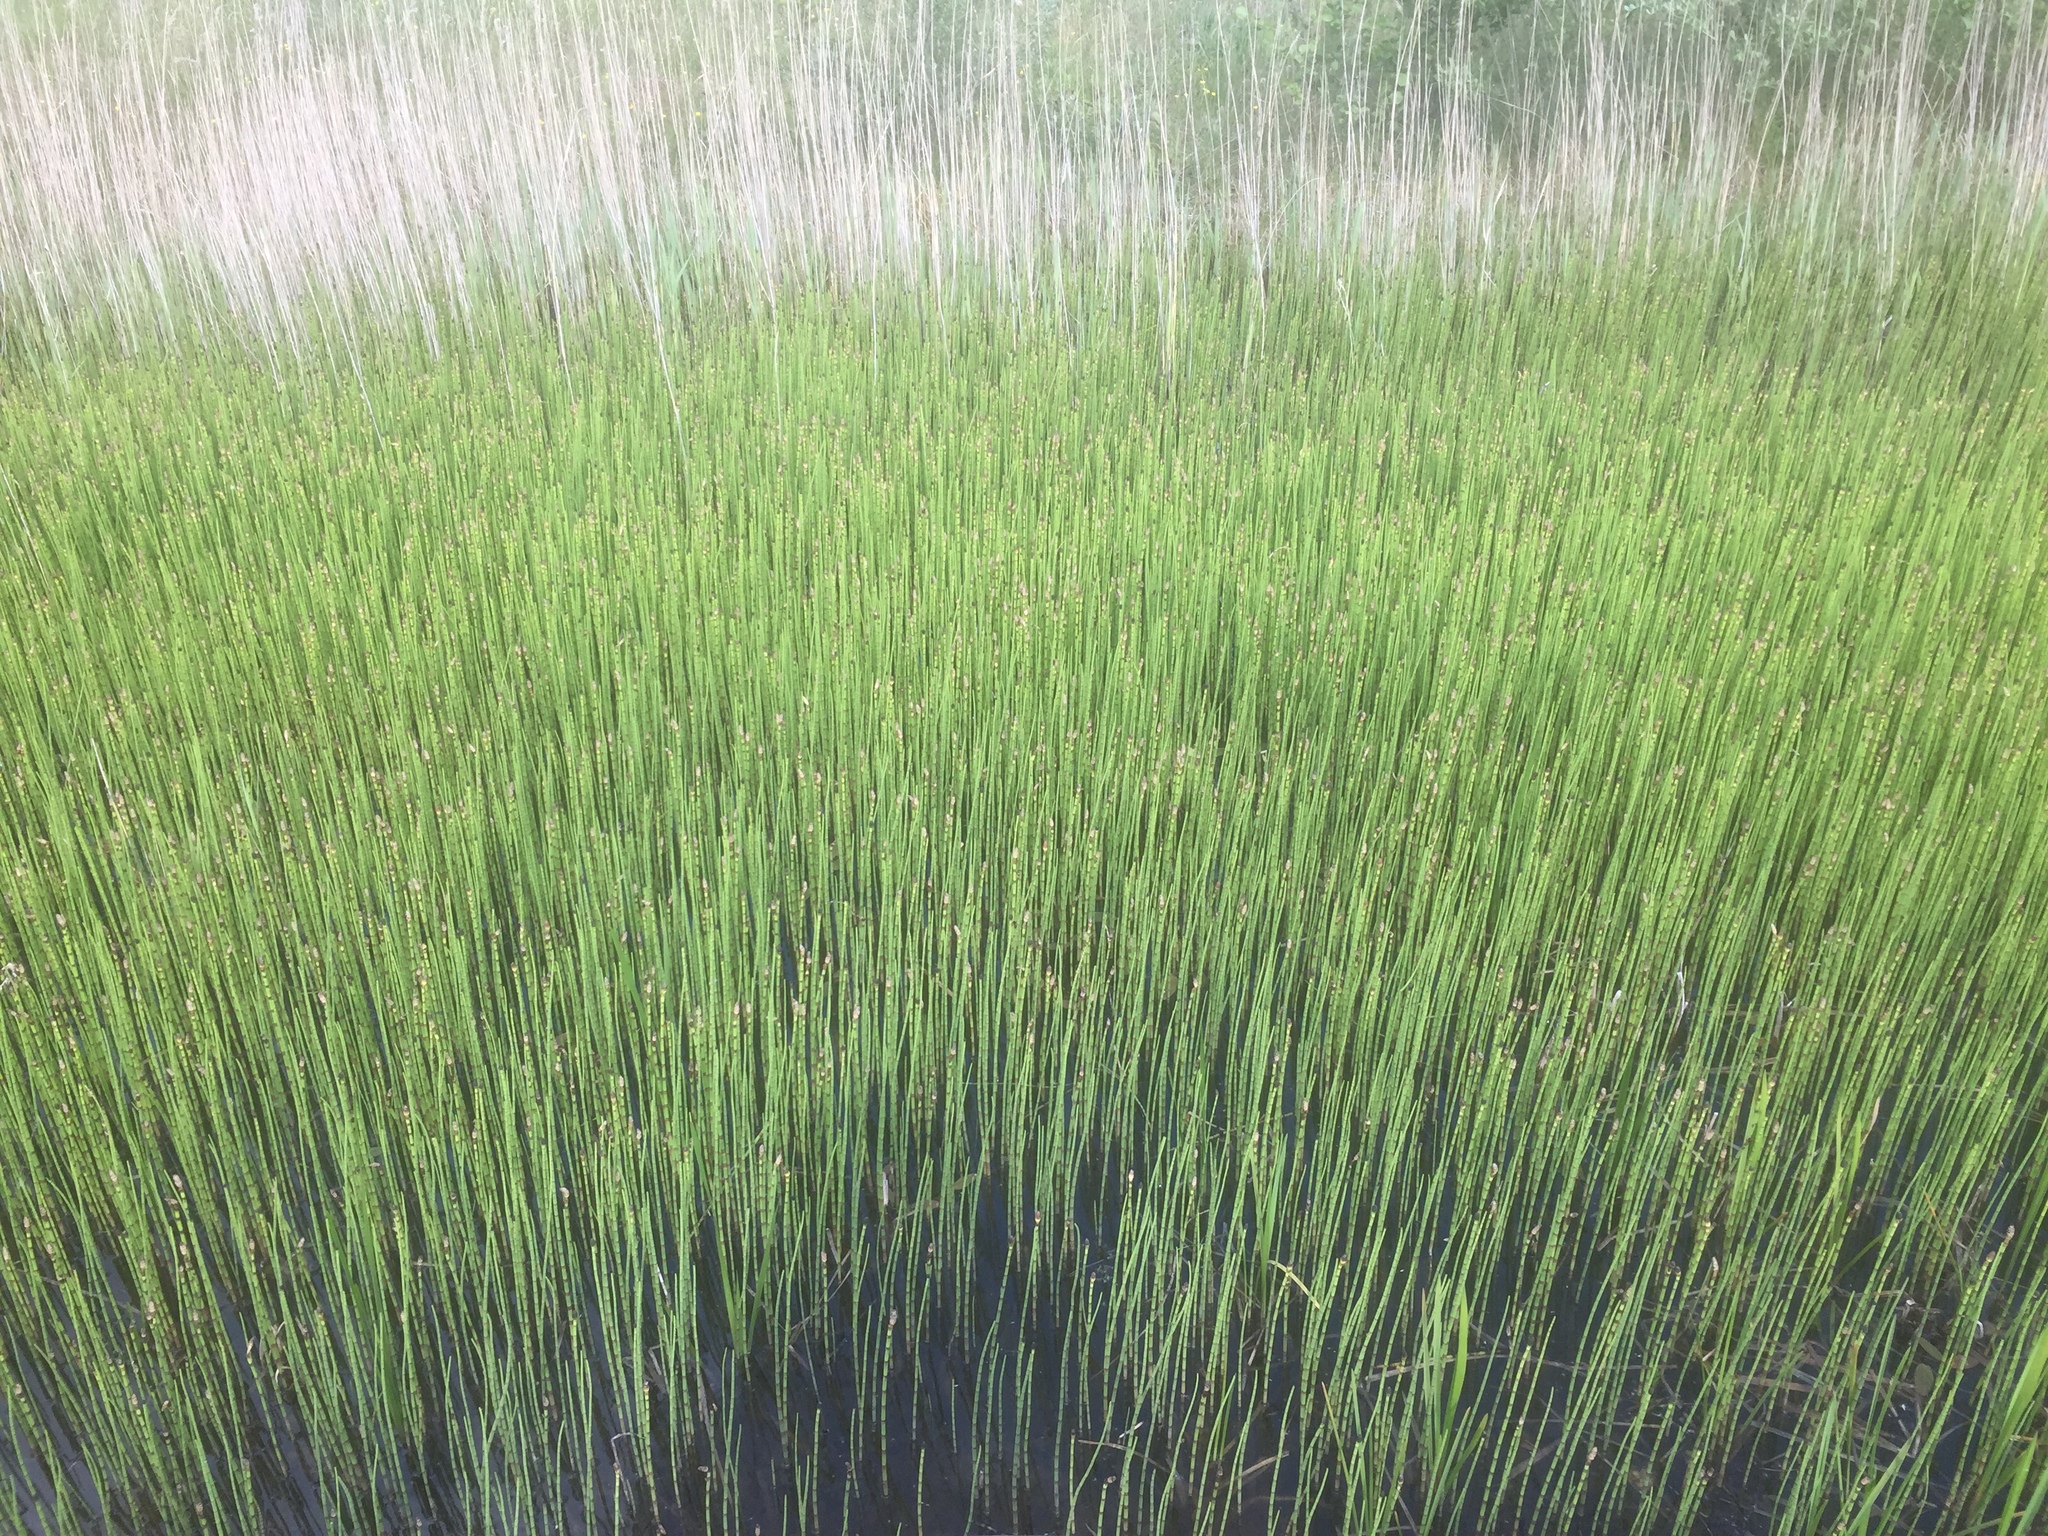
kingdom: Plantae
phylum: Tracheophyta
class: Polypodiopsida
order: Equisetales
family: Equisetaceae
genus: Equisetum
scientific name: Equisetum fluviatile
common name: Water horsetail
